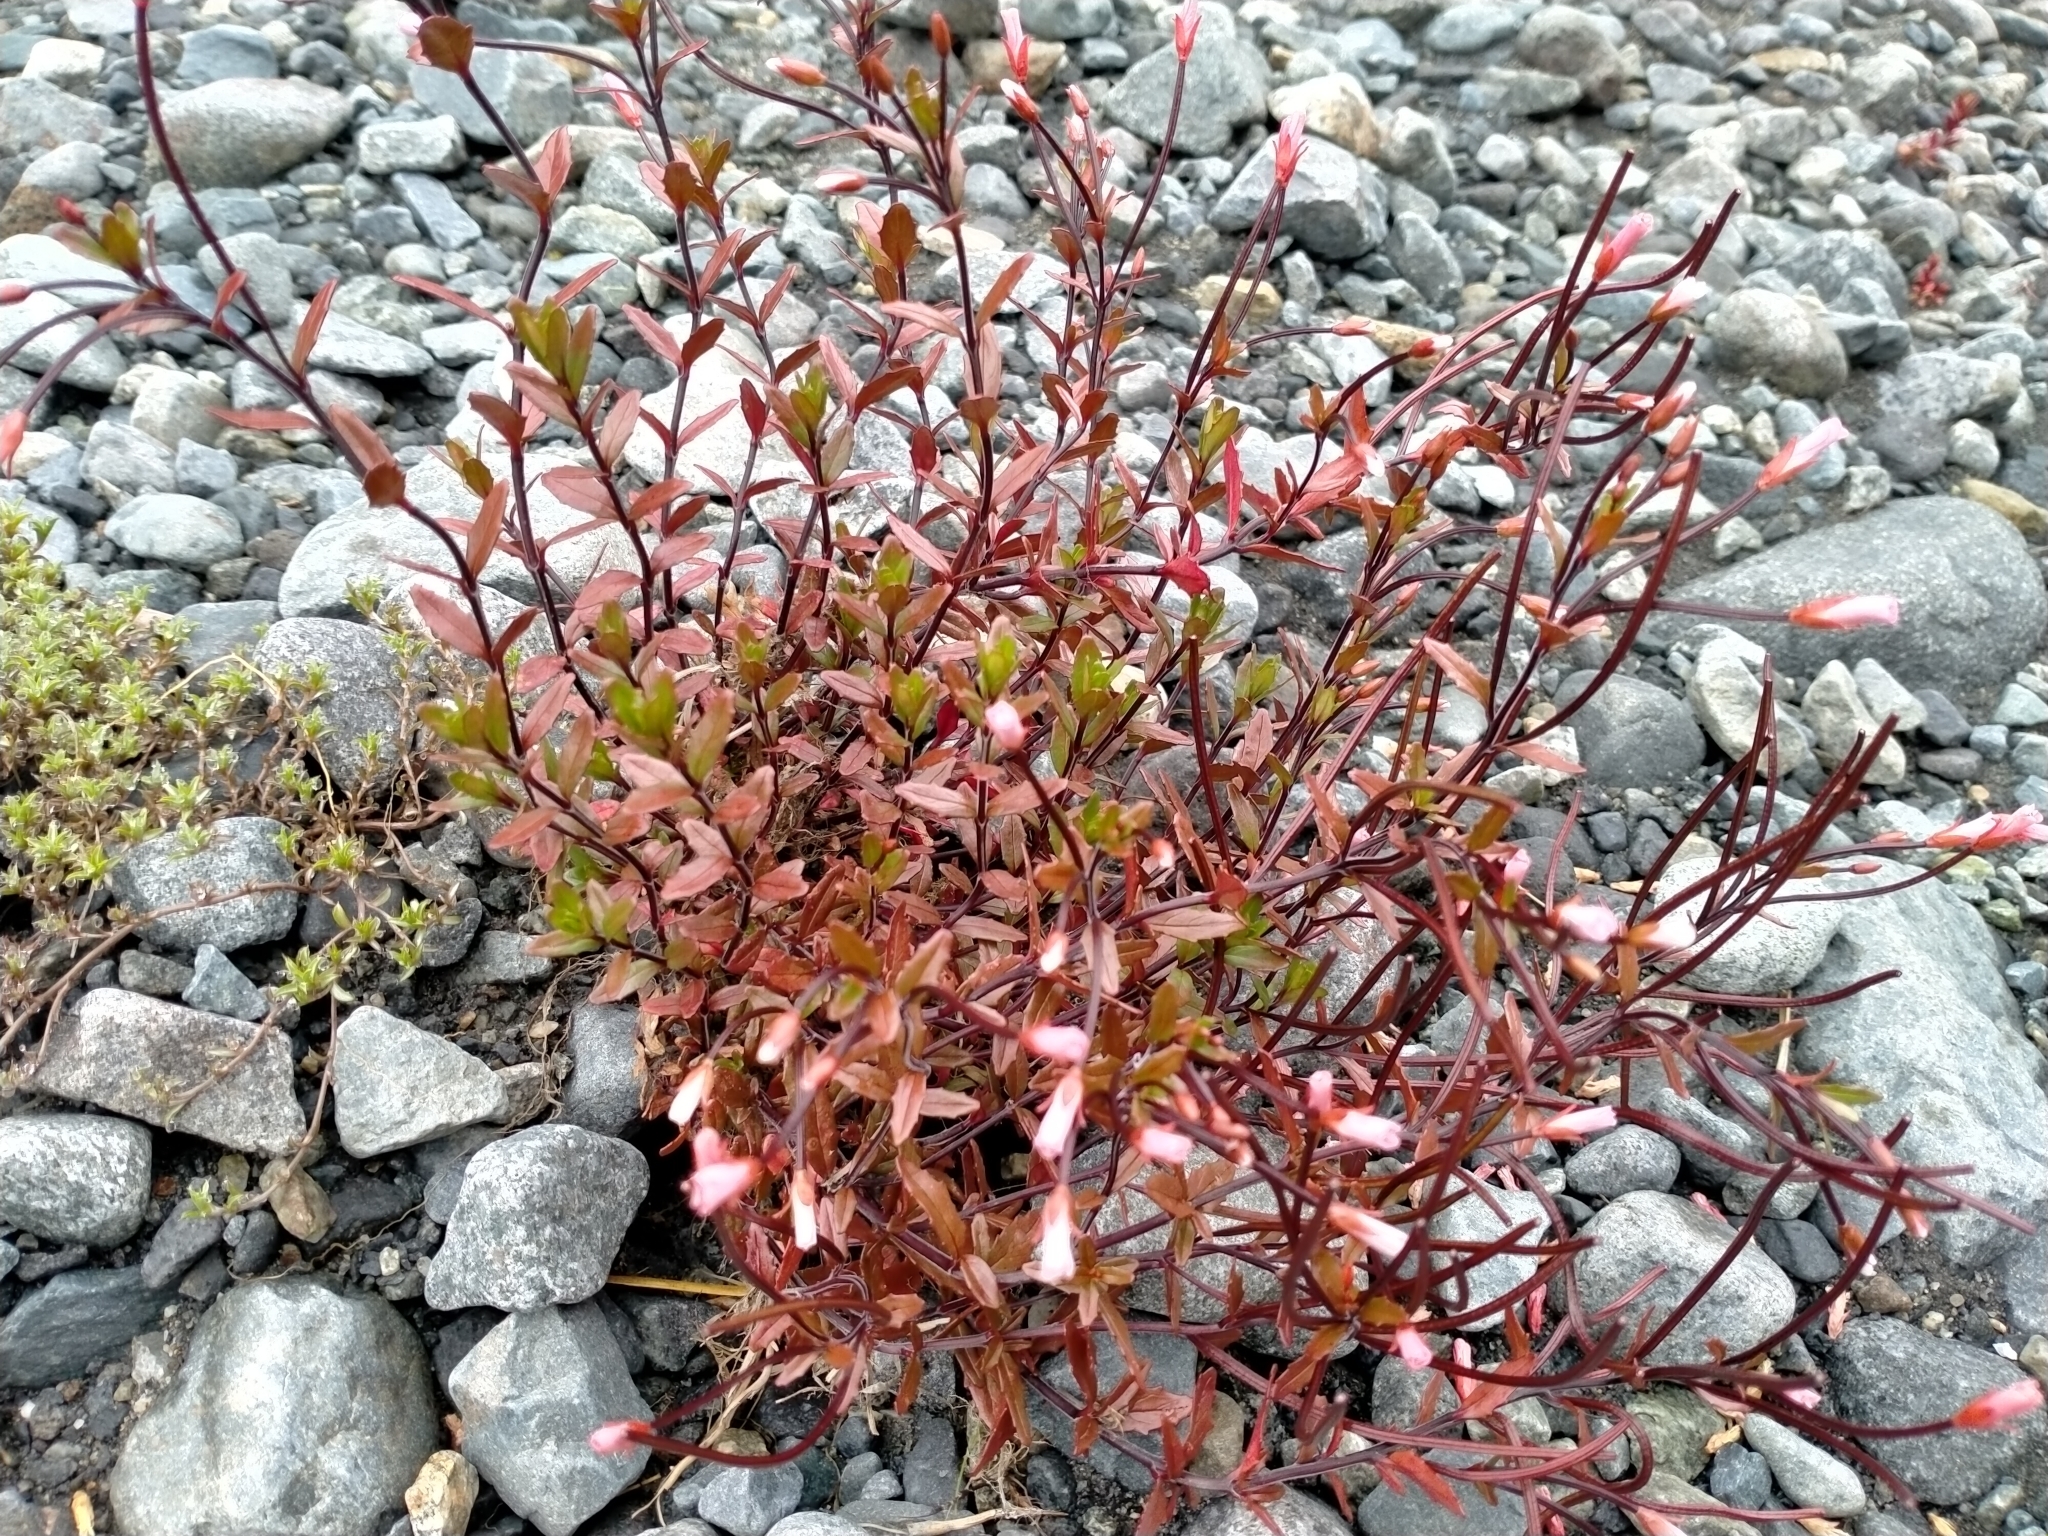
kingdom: Plantae
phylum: Tracheophyta
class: Magnoliopsida
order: Myrtales
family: Onagraceae
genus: Epilobium
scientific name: Epilobium glabellum
